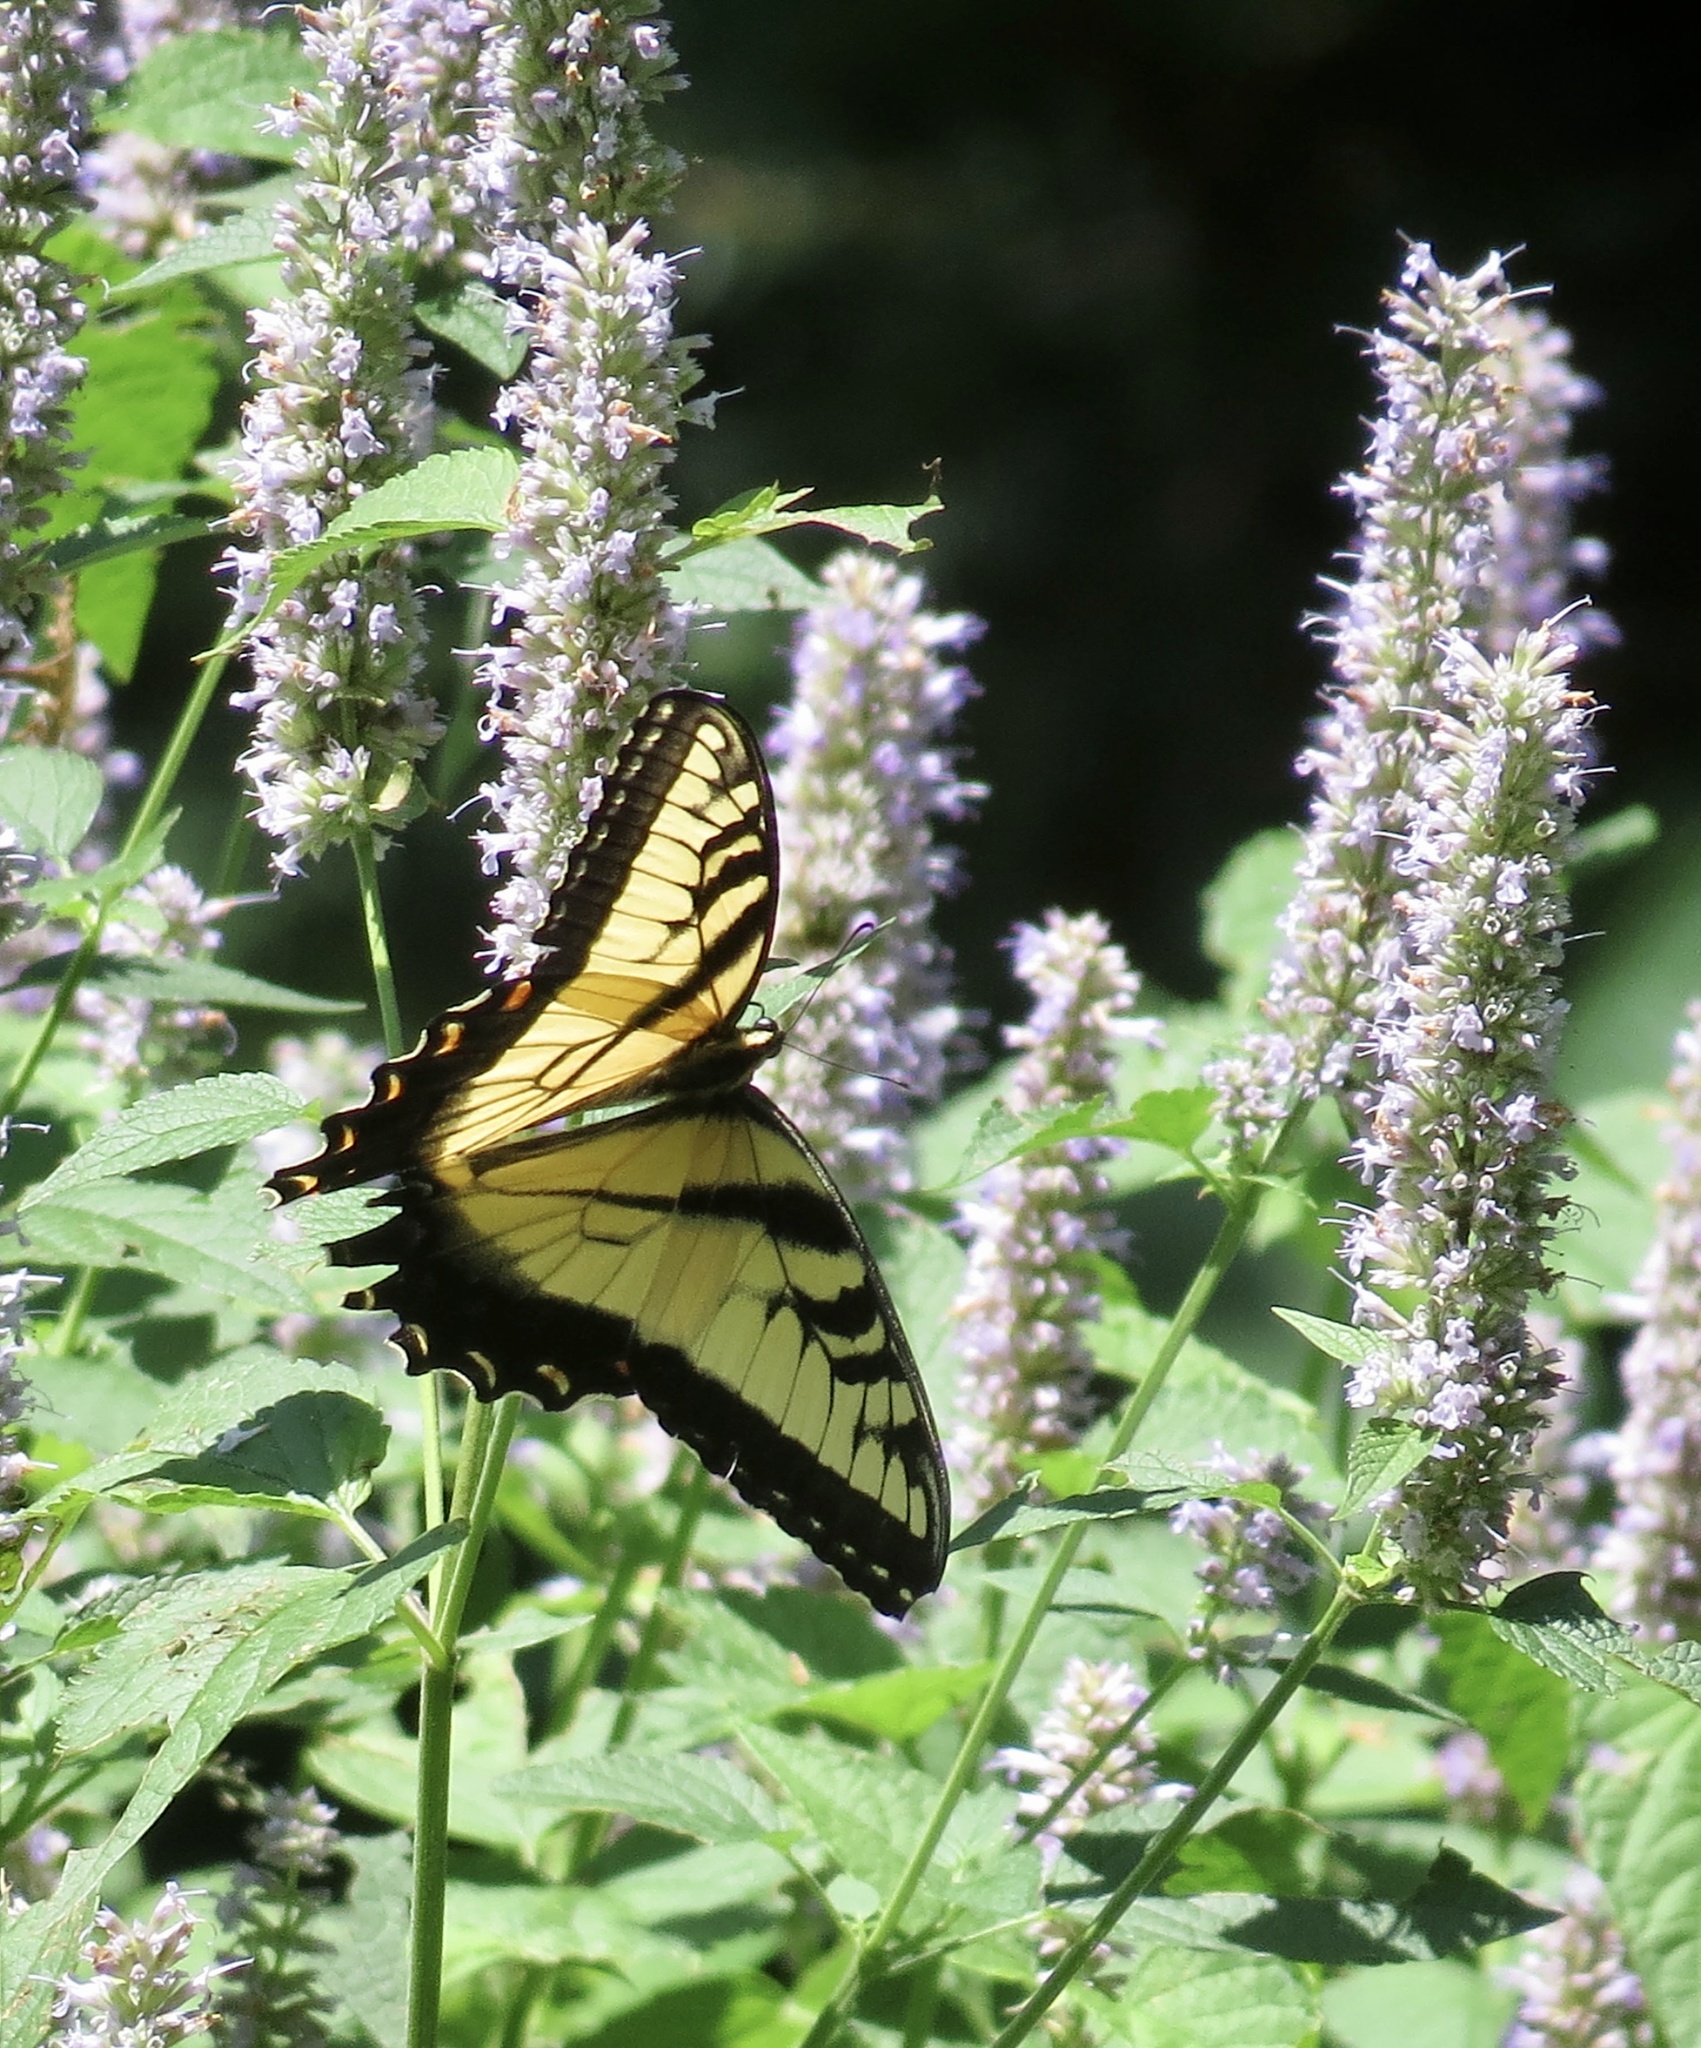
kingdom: Animalia
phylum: Arthropoda
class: Insecta
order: Lepidoptera
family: Papilionidae
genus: Papilio
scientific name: Papilio glaucus
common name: Tiger swallowtail
